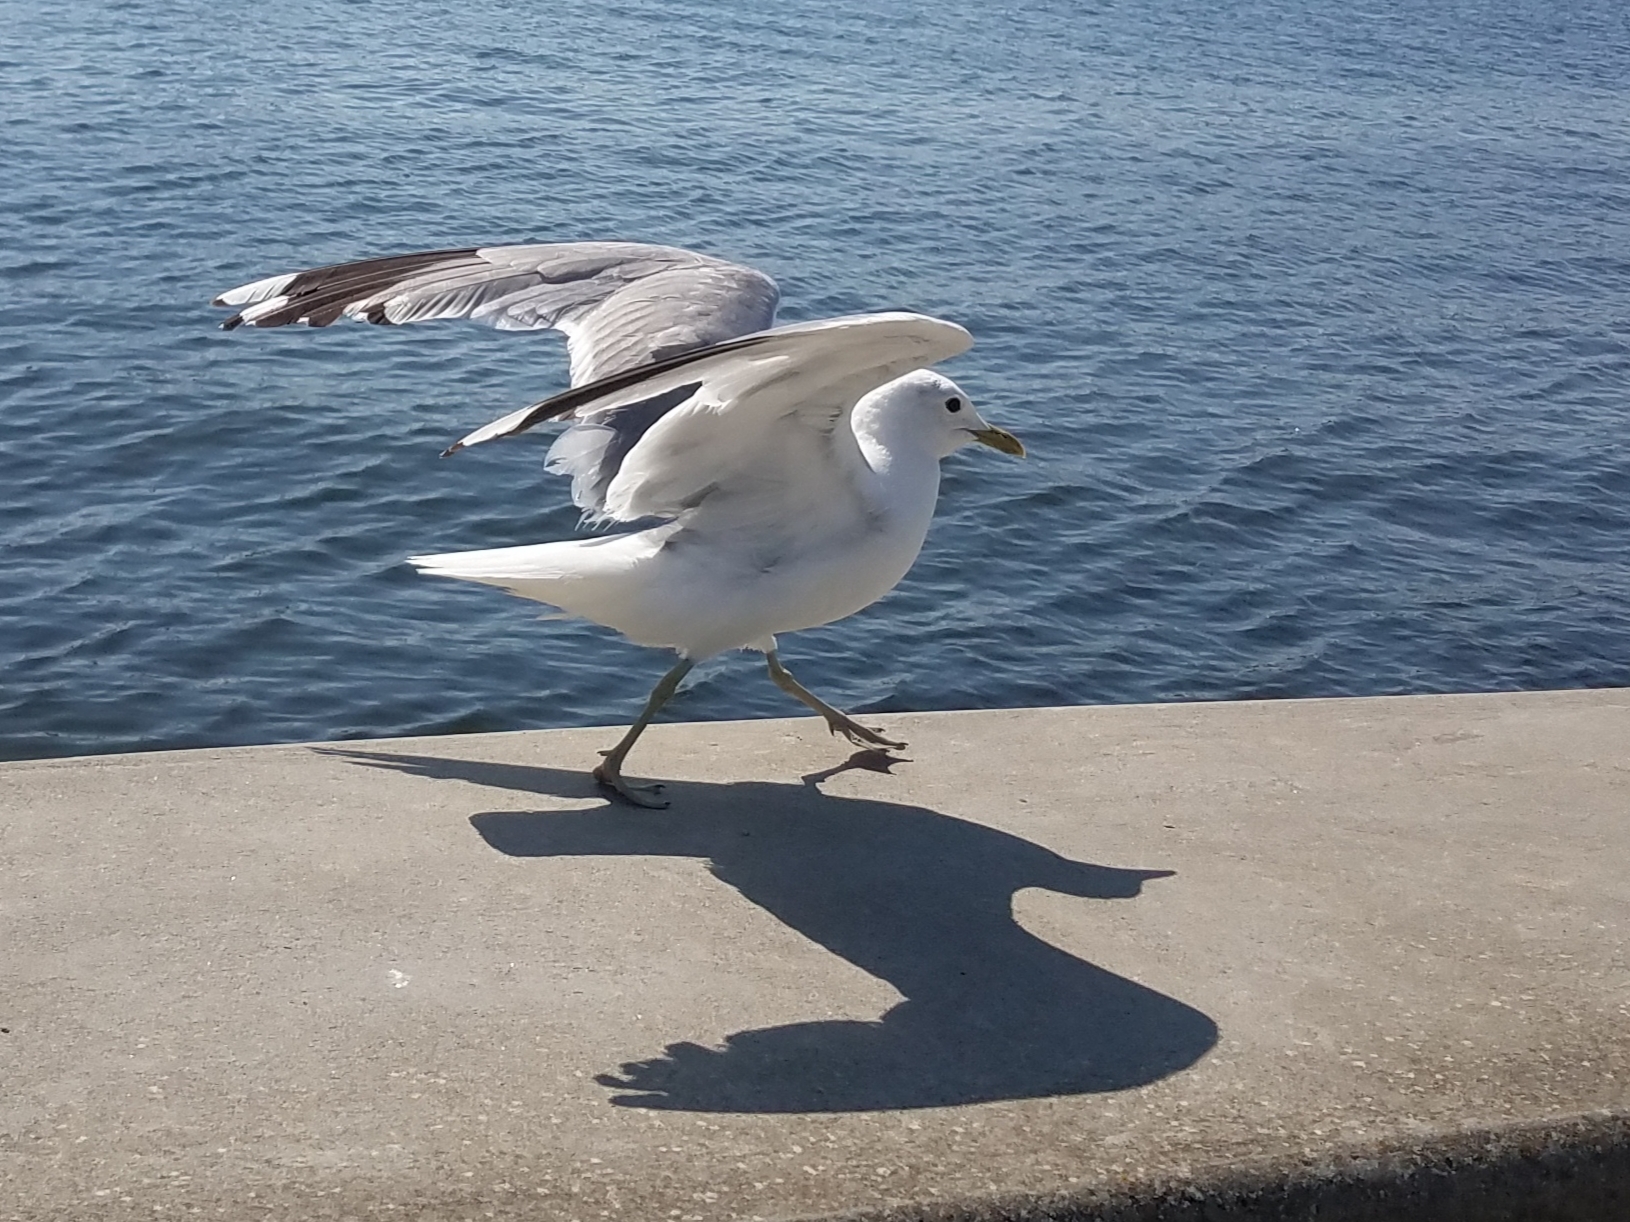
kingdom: Animalia
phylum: Chordata
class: Aves
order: Charadriiformes
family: Laridae
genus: Larus
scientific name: Larus canus
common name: Mew gull
